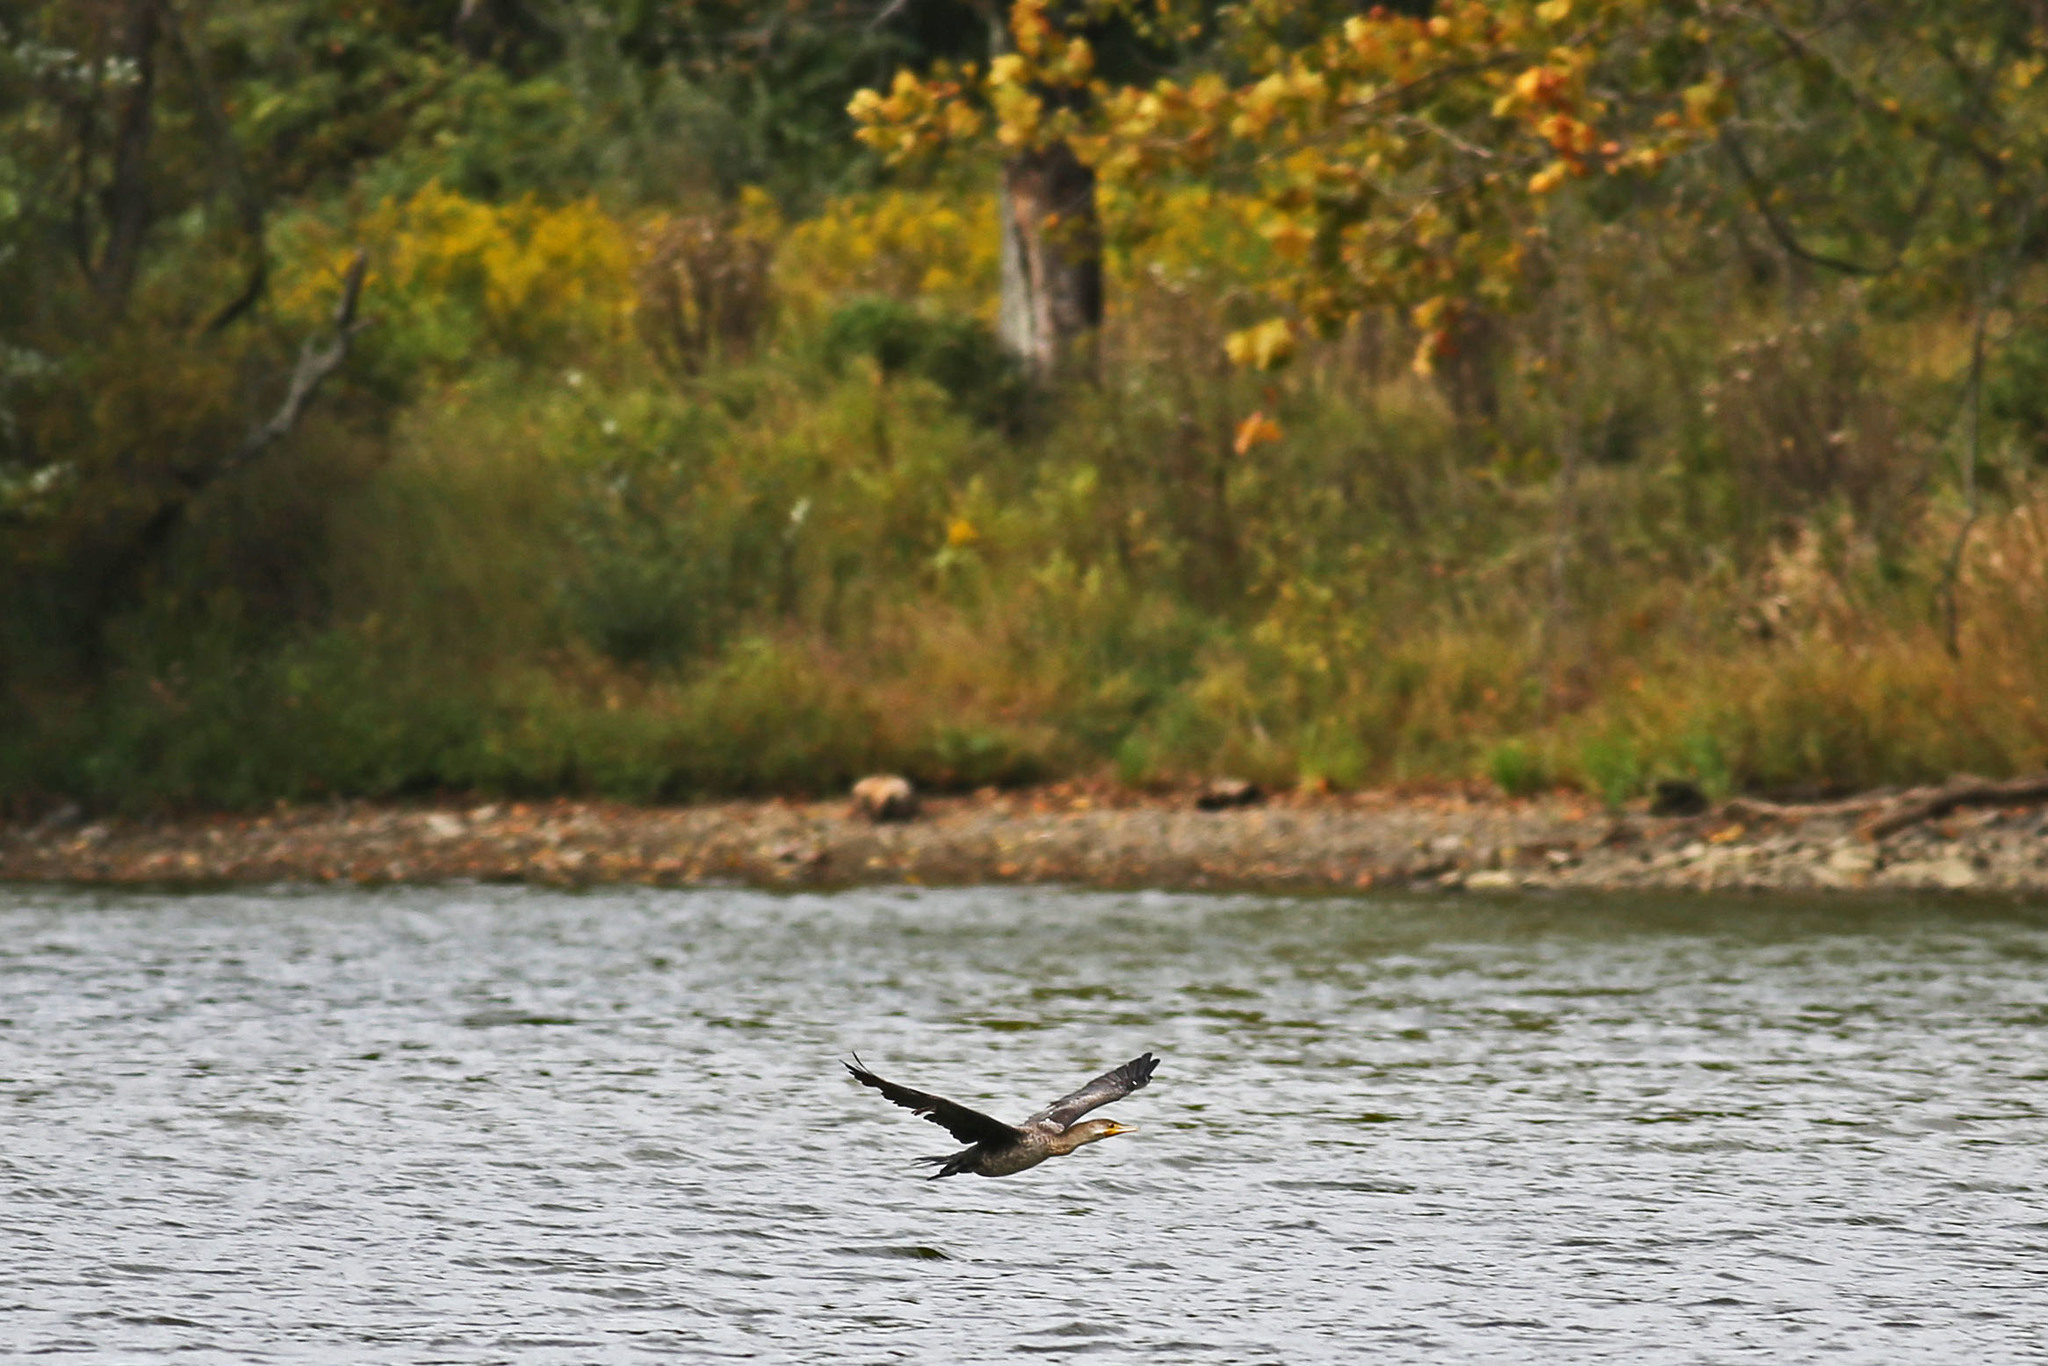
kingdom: Animalia
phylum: Chordata
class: Aves
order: Suliformes
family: Phalacrocoracidae
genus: Phalacrocorax
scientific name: Phalacrocorax auritus
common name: Double-crested cormorant
